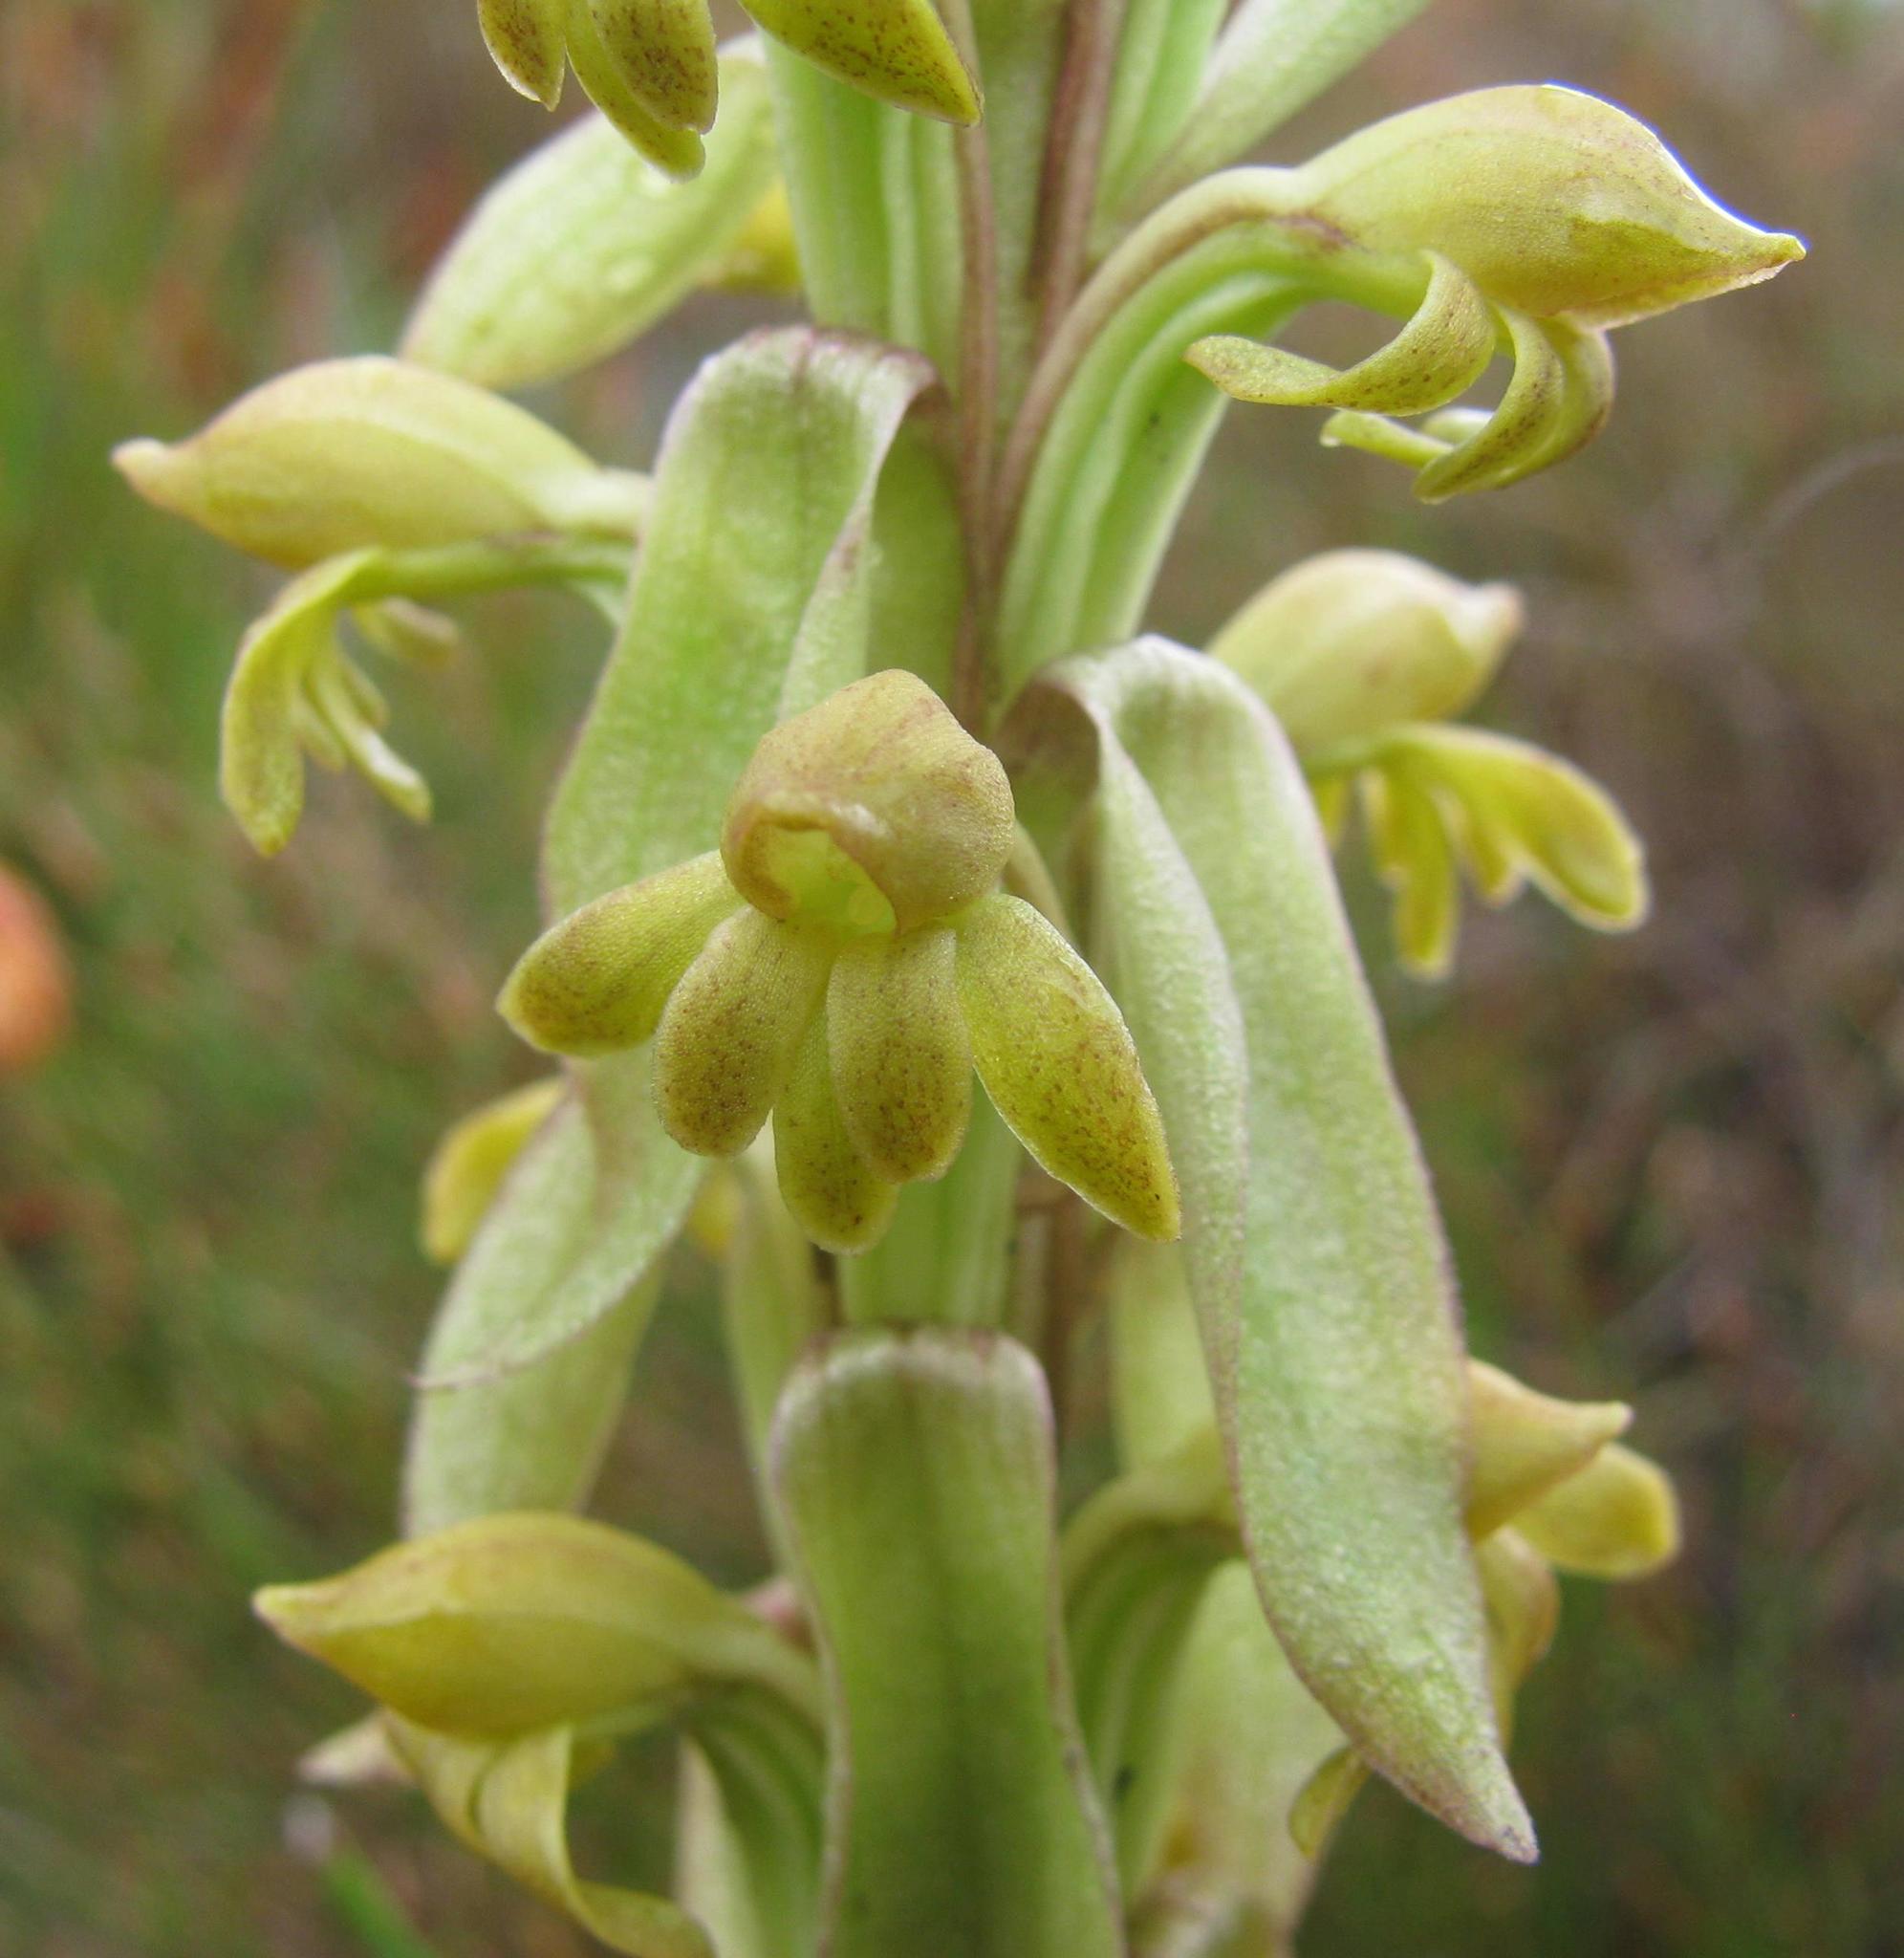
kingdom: Plantae
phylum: Tracheophyta
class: Liliopsida
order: Asparagales
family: Orchidaceae
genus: Satyrium
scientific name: Satyrium bicorne
